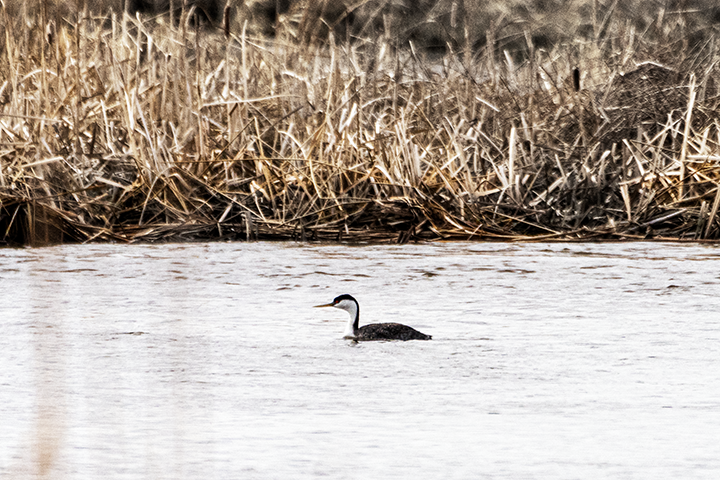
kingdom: Animalia
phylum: Chordata
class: Aves
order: Podicipediformes
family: Podicipedidae
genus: Aechmophorus
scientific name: Aechmophorus occidentalis
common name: Western grebe
